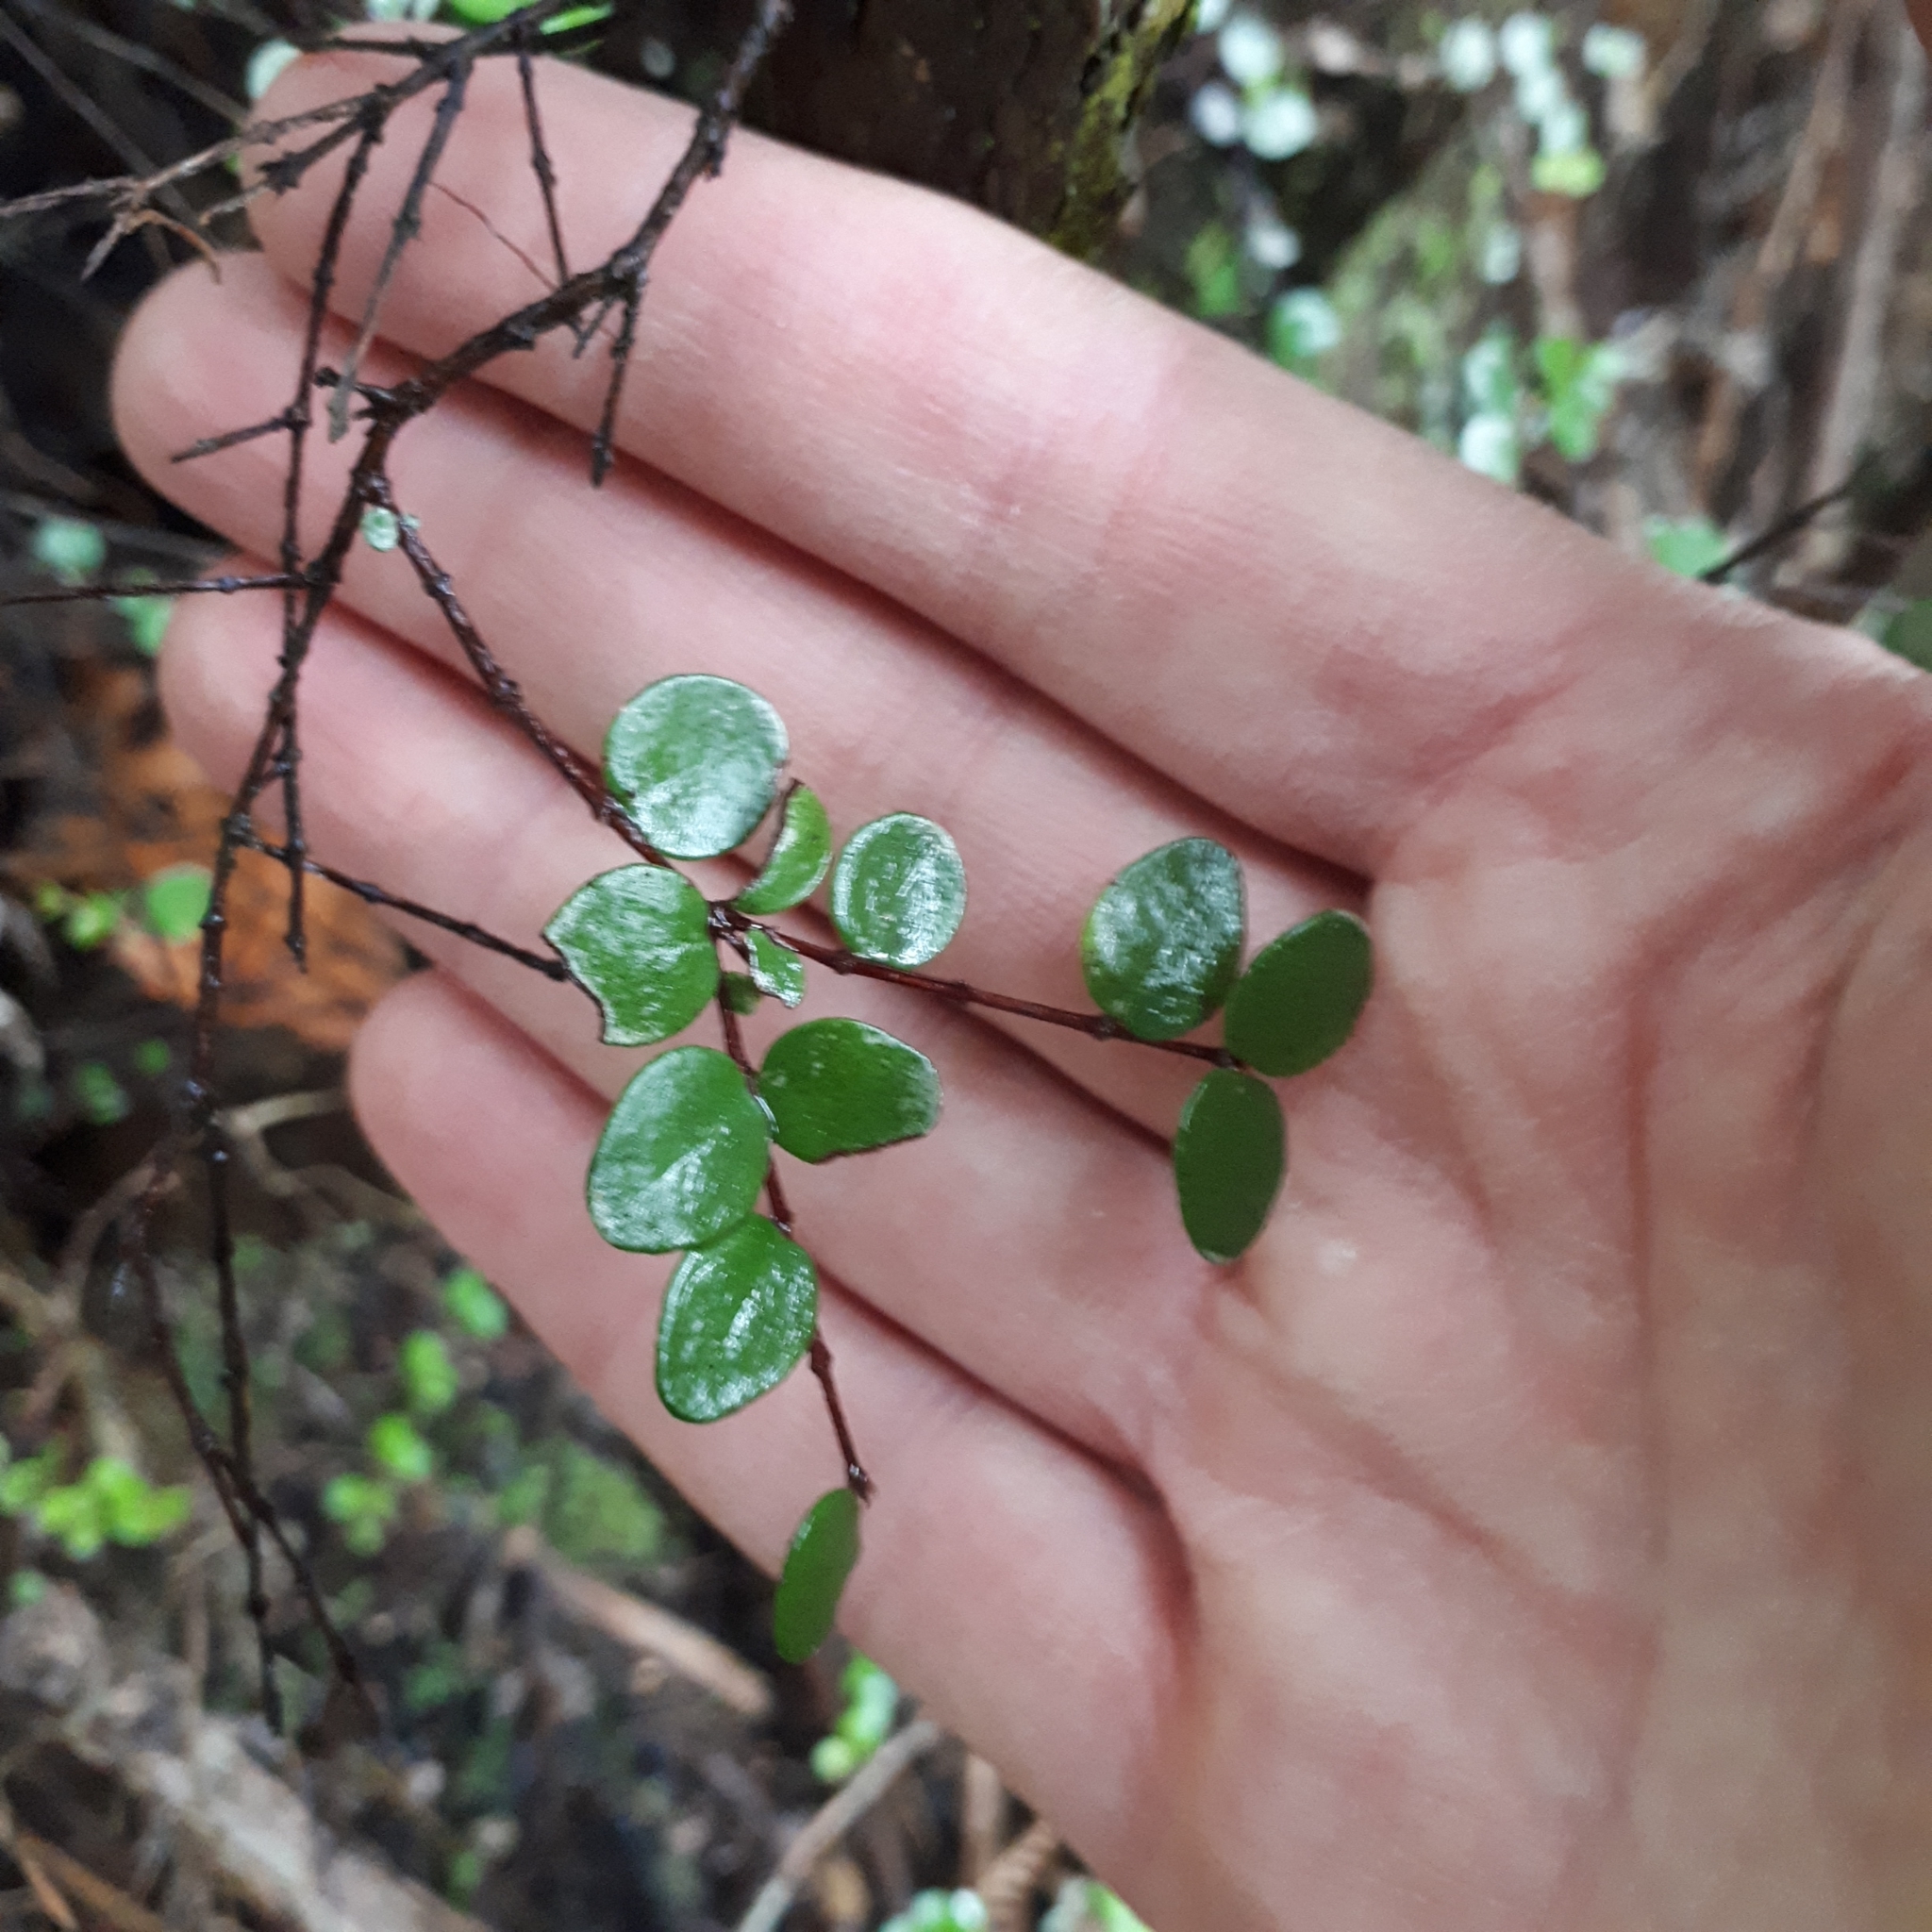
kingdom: Plantae
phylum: Tracheophyta
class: Magnoliopsida
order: Myrtales
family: Myrtaceae
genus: Metrosideros
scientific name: Metrosideros perforata
